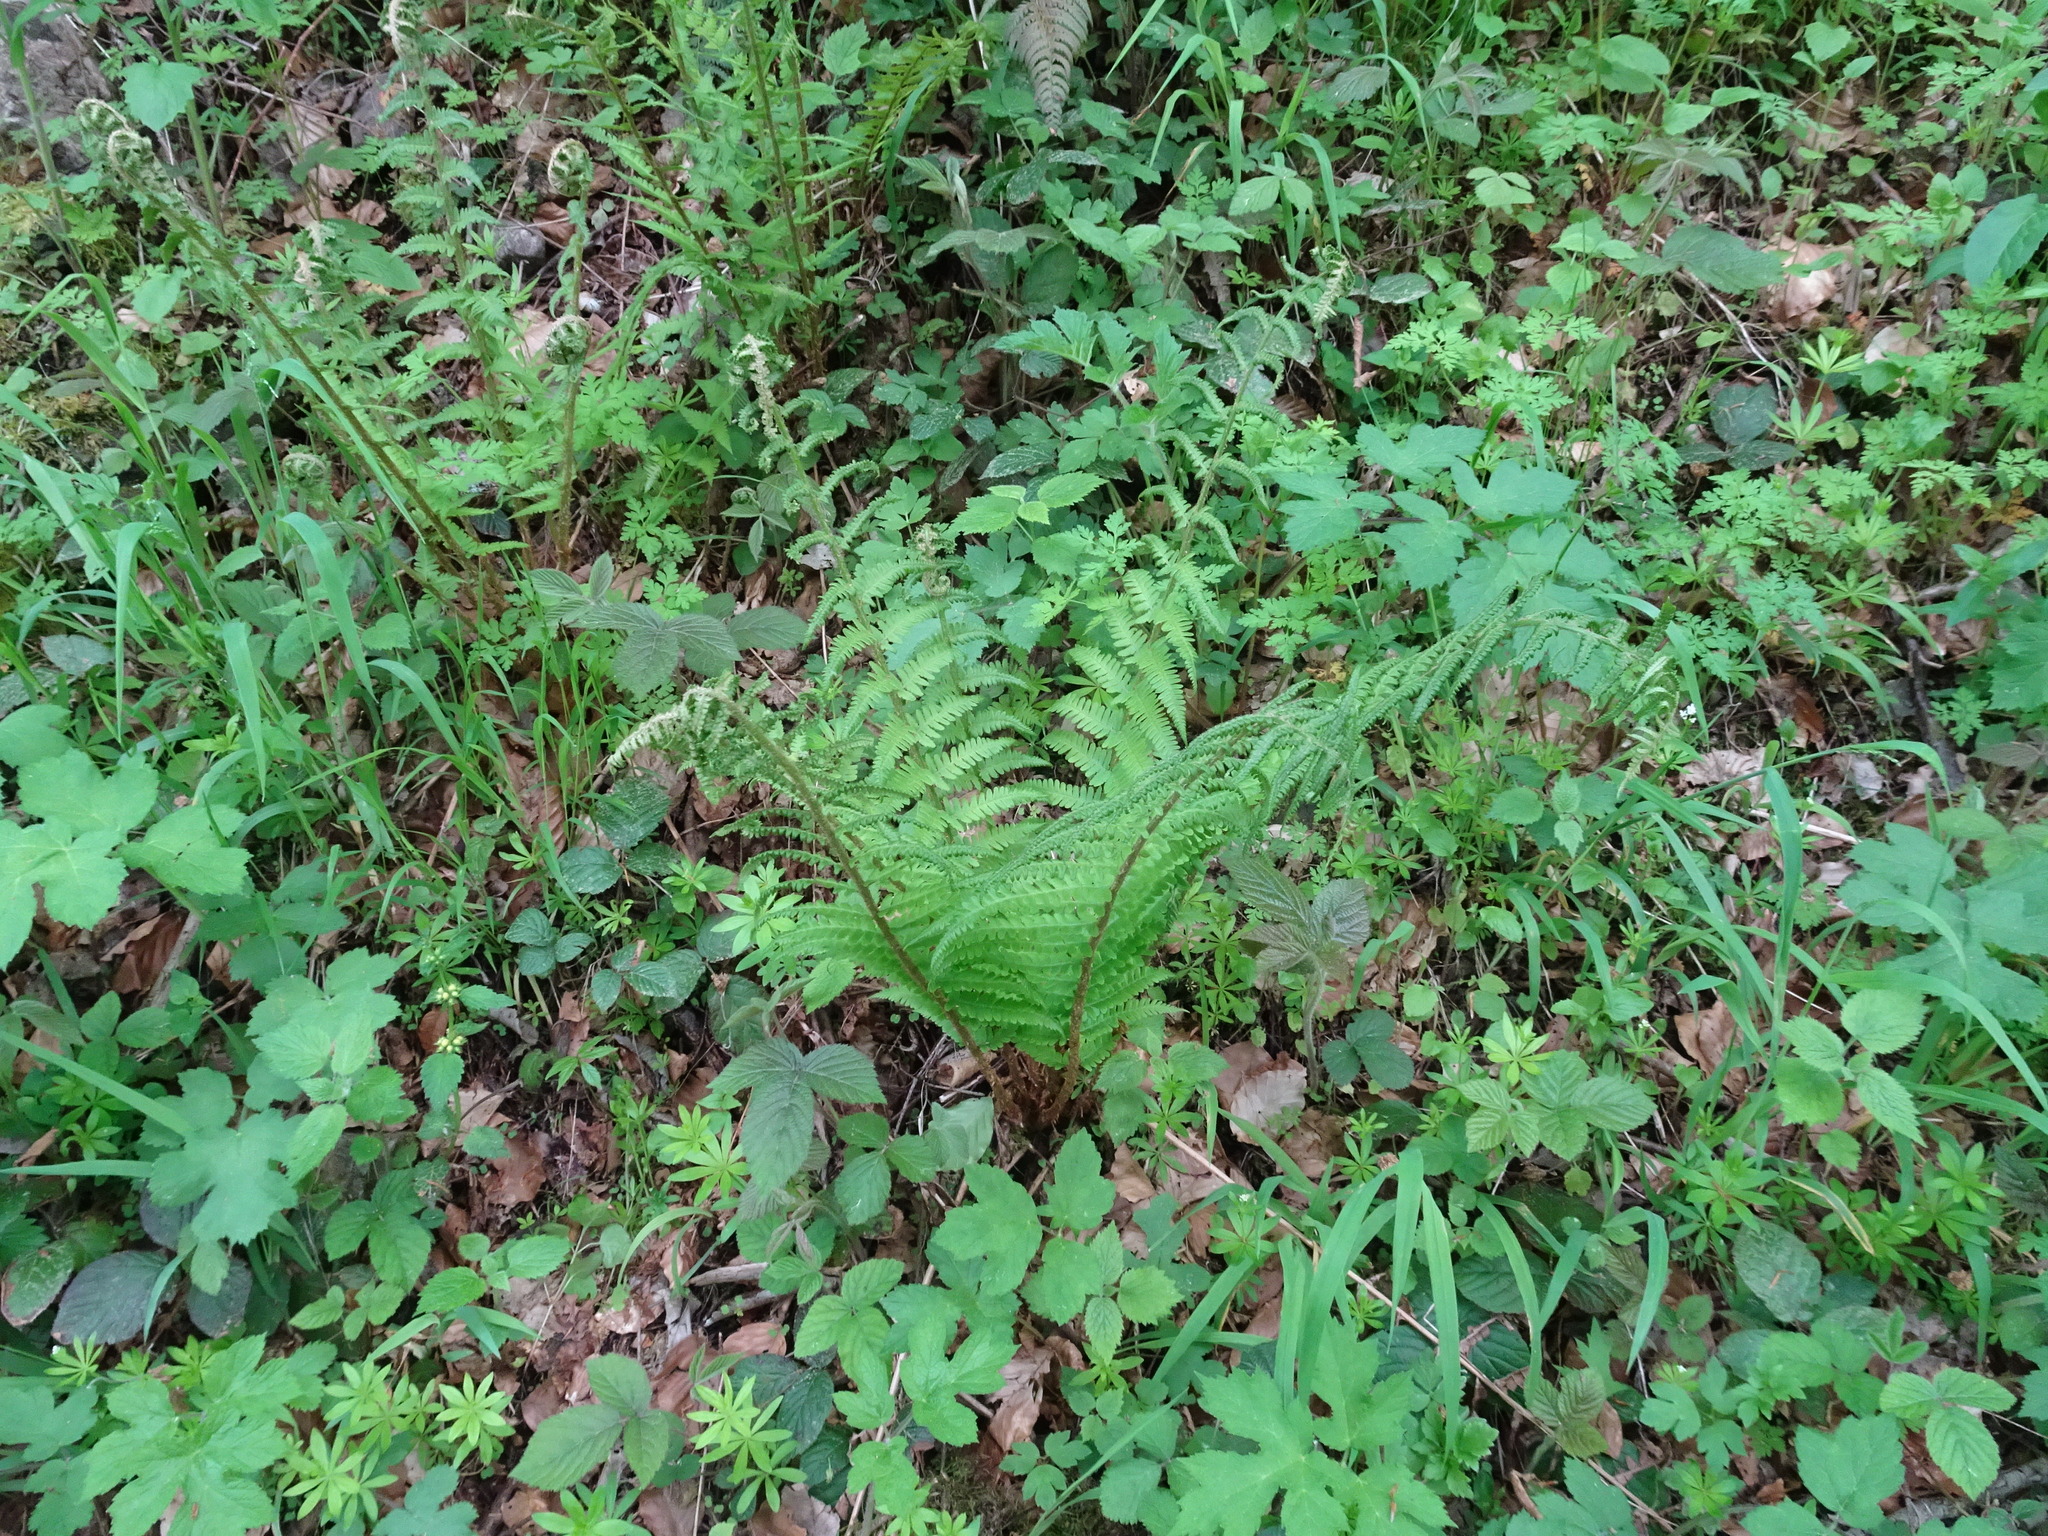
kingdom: Plantae
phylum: Tracheophyta
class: Polypodiopsida
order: Polypodiales
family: Dryopteridaceae
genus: Dryopteris
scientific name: Dryopteris filix-mas
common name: Male fern
